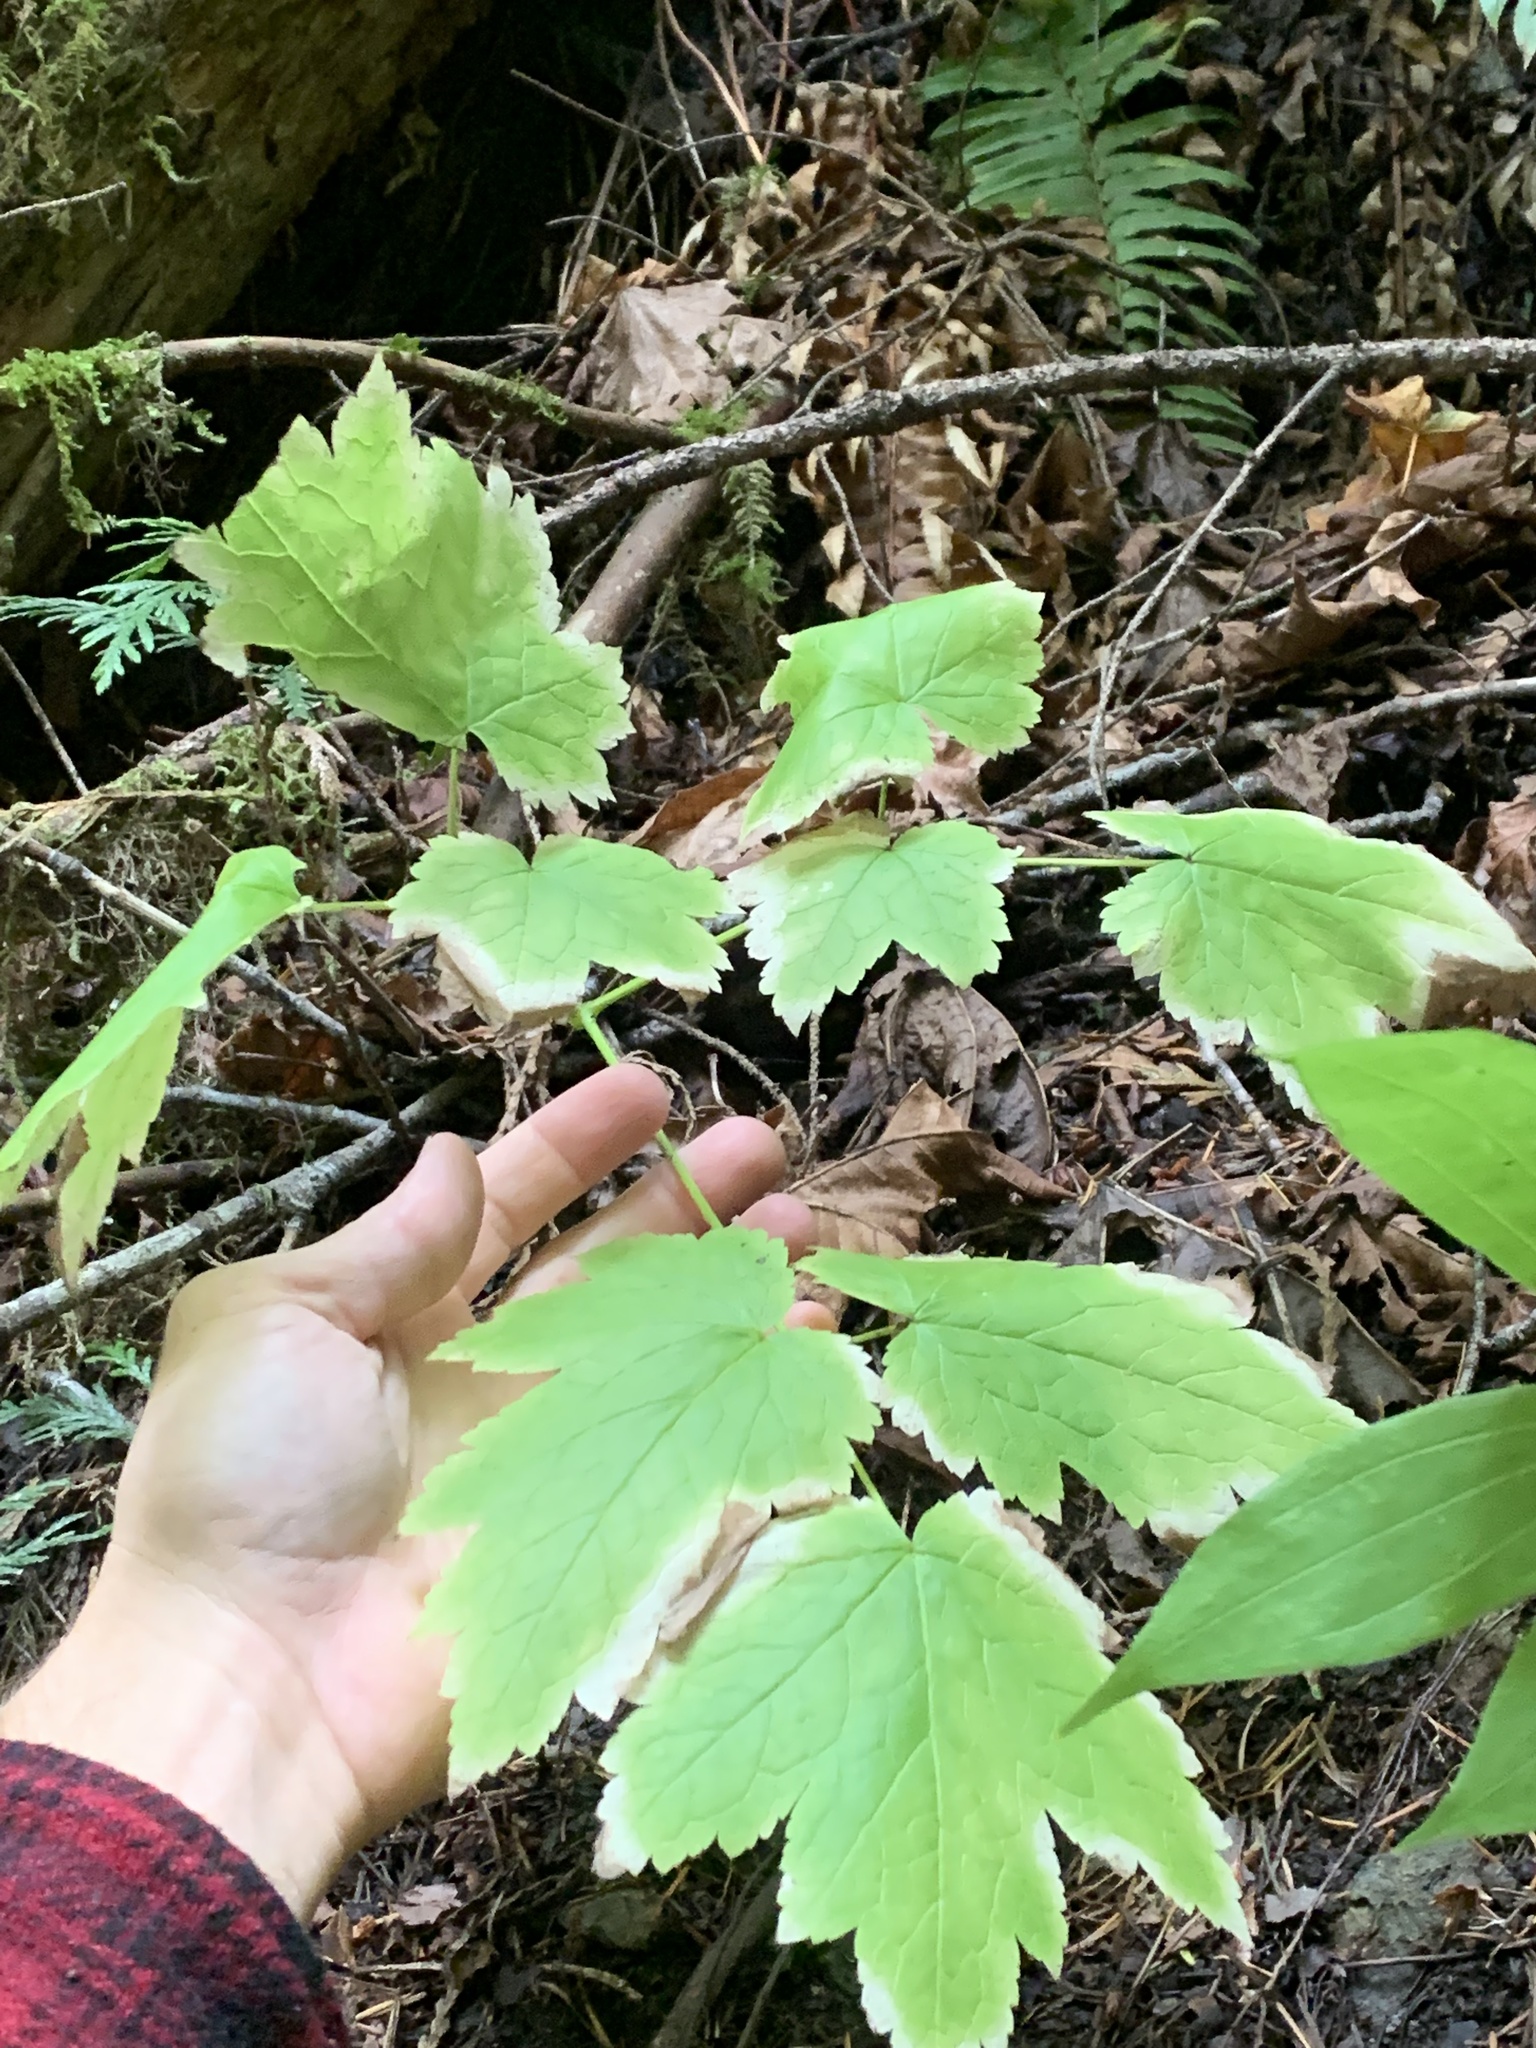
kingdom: Plantae
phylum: Tracheophyta
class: Magnoliopsida
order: Ranunculales
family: Ranunculaceae
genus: Actaea
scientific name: Actaea elata
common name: Tall bugbane
